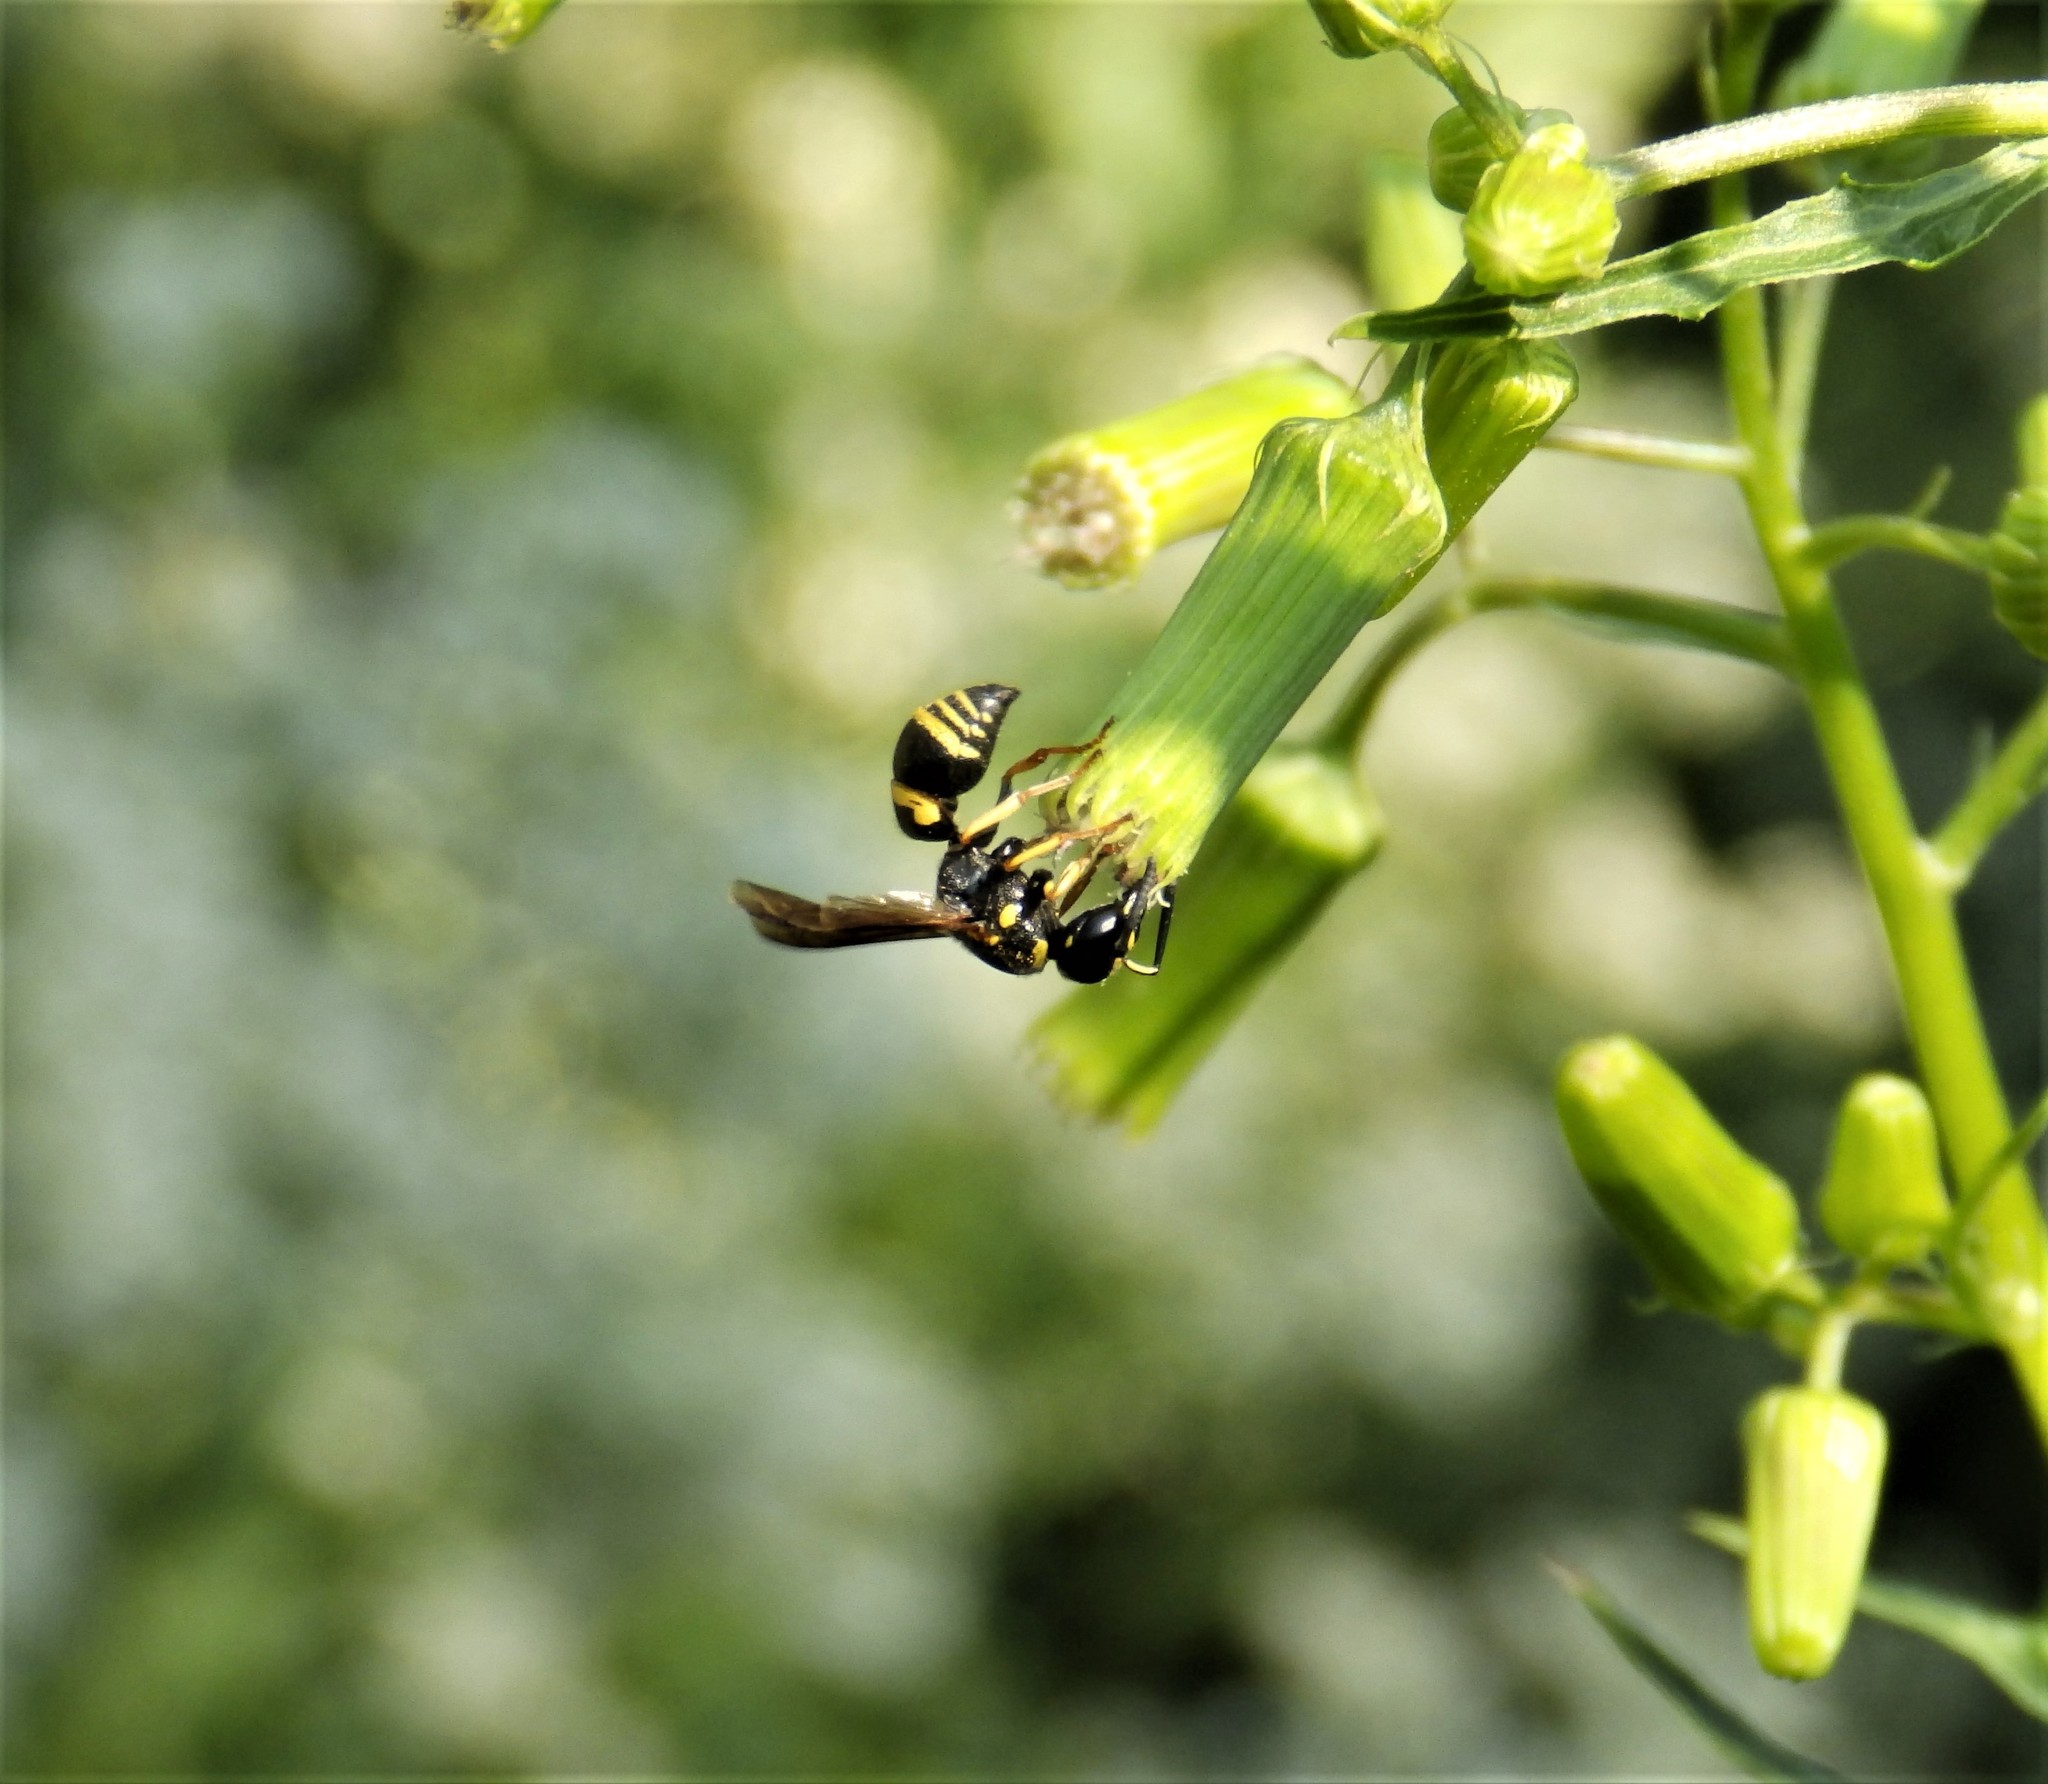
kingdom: Animalia
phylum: Arthropoda
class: Insecta
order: Hymenoptera
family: Eumenidae
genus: Euodynerus
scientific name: Euodynerus foraminatus
